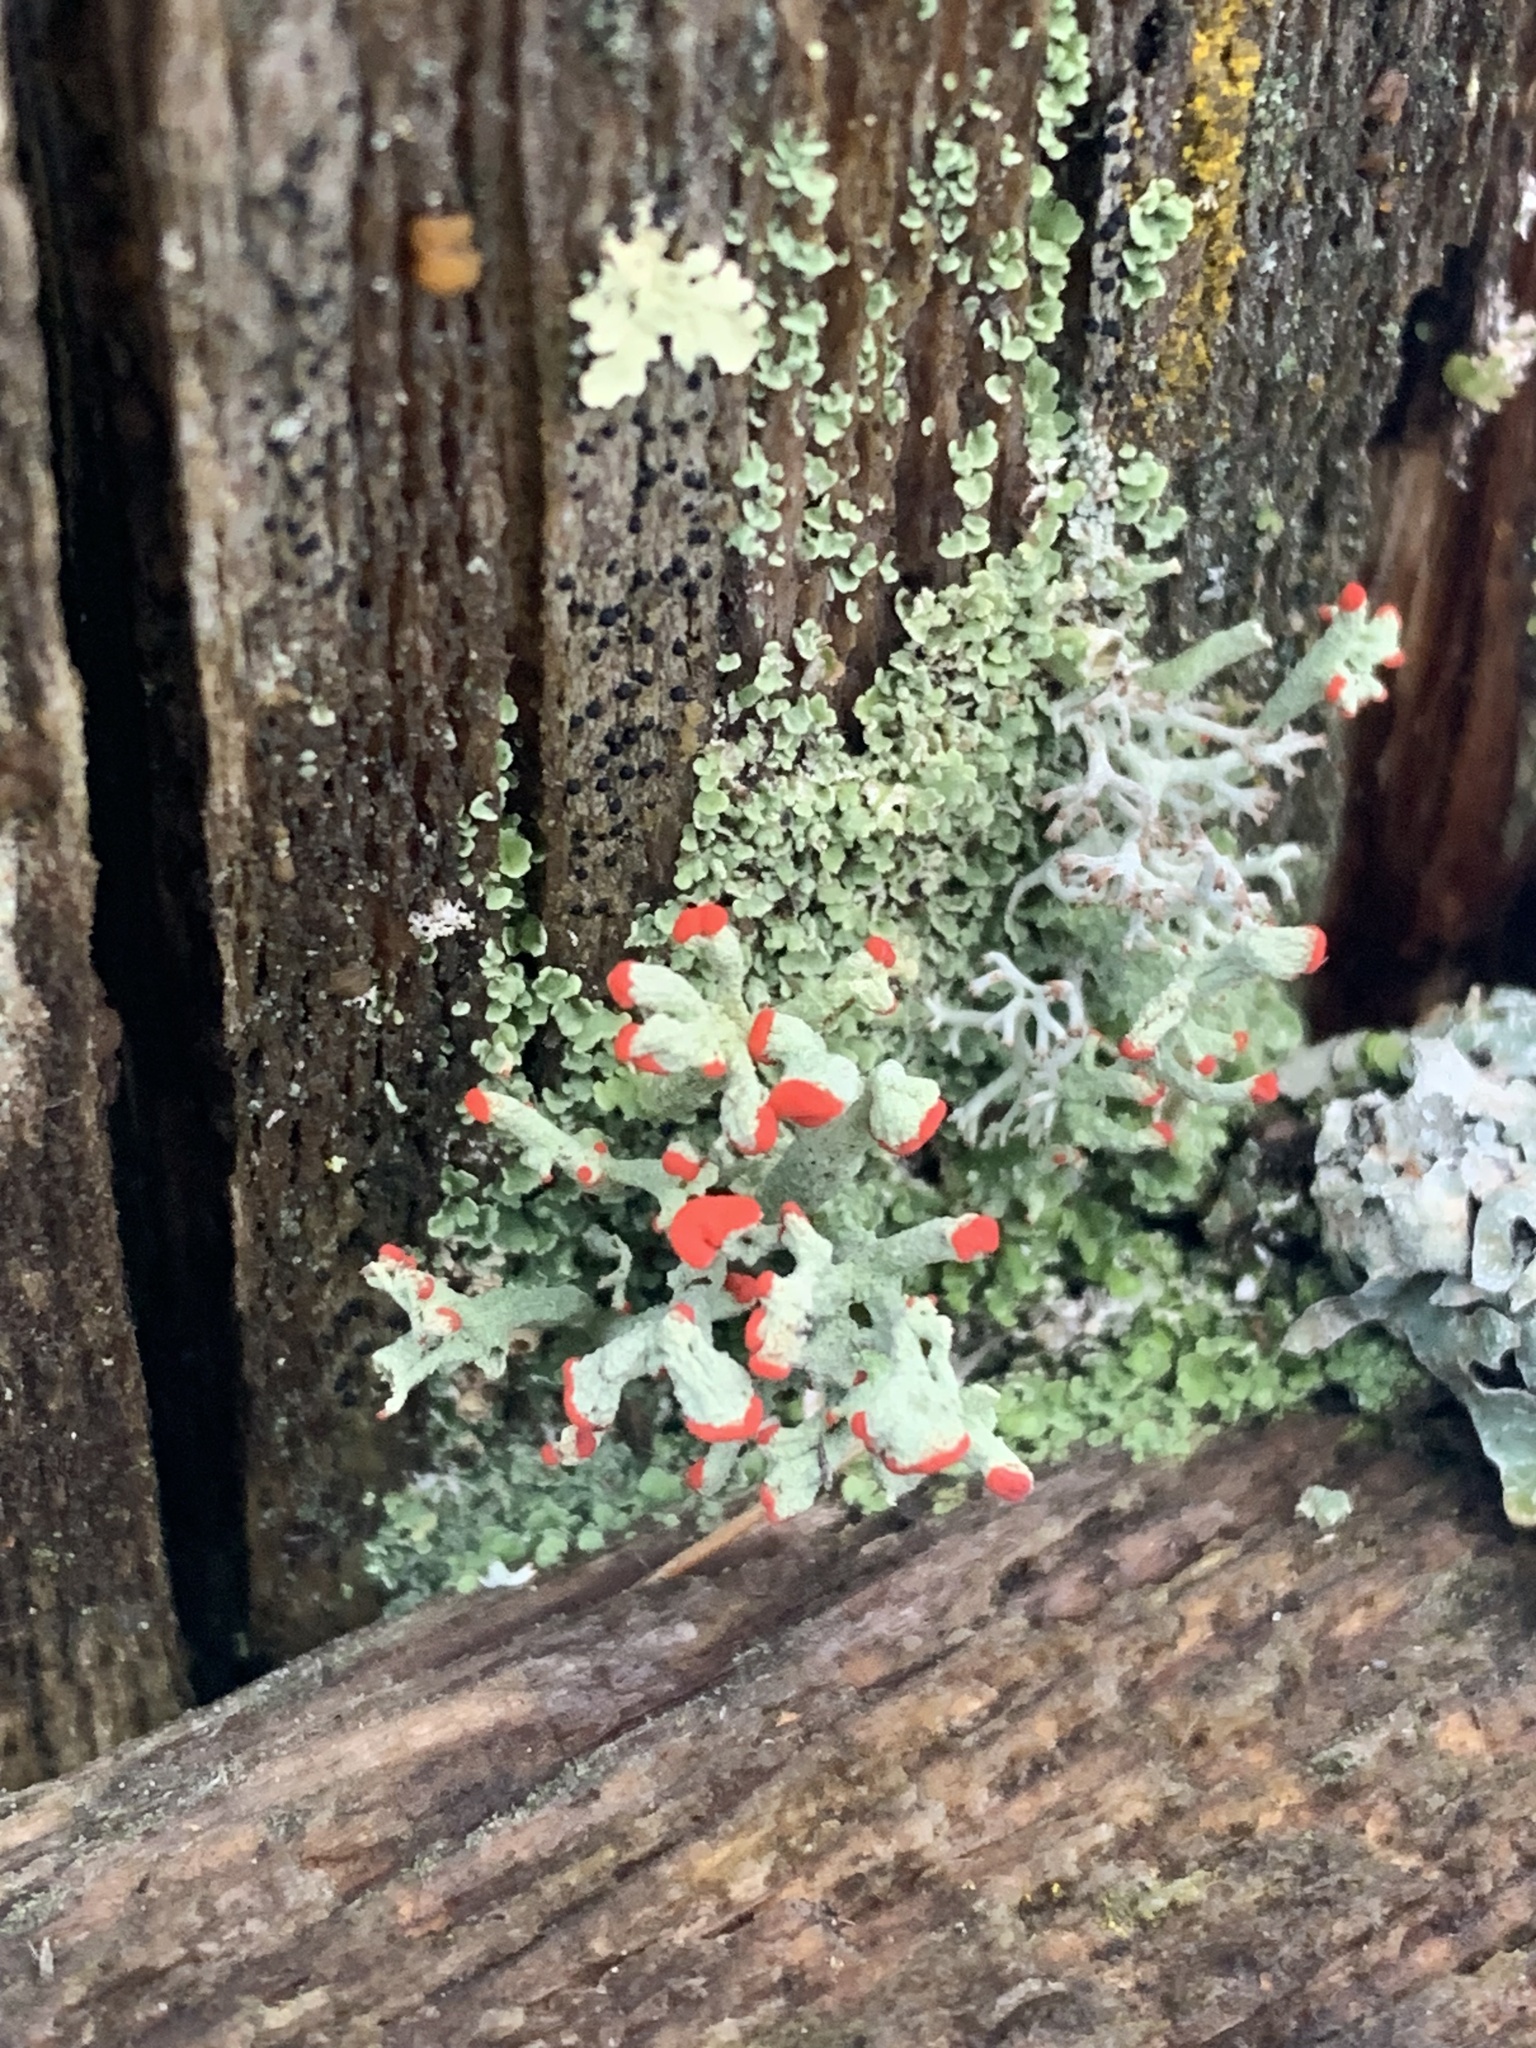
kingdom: Fungi
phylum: Ascomycota
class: Lecanoromycetes
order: Lecanorales
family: Cladoniaceae
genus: Cladonia
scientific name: Cladonia cristatella
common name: British soldier lichen
